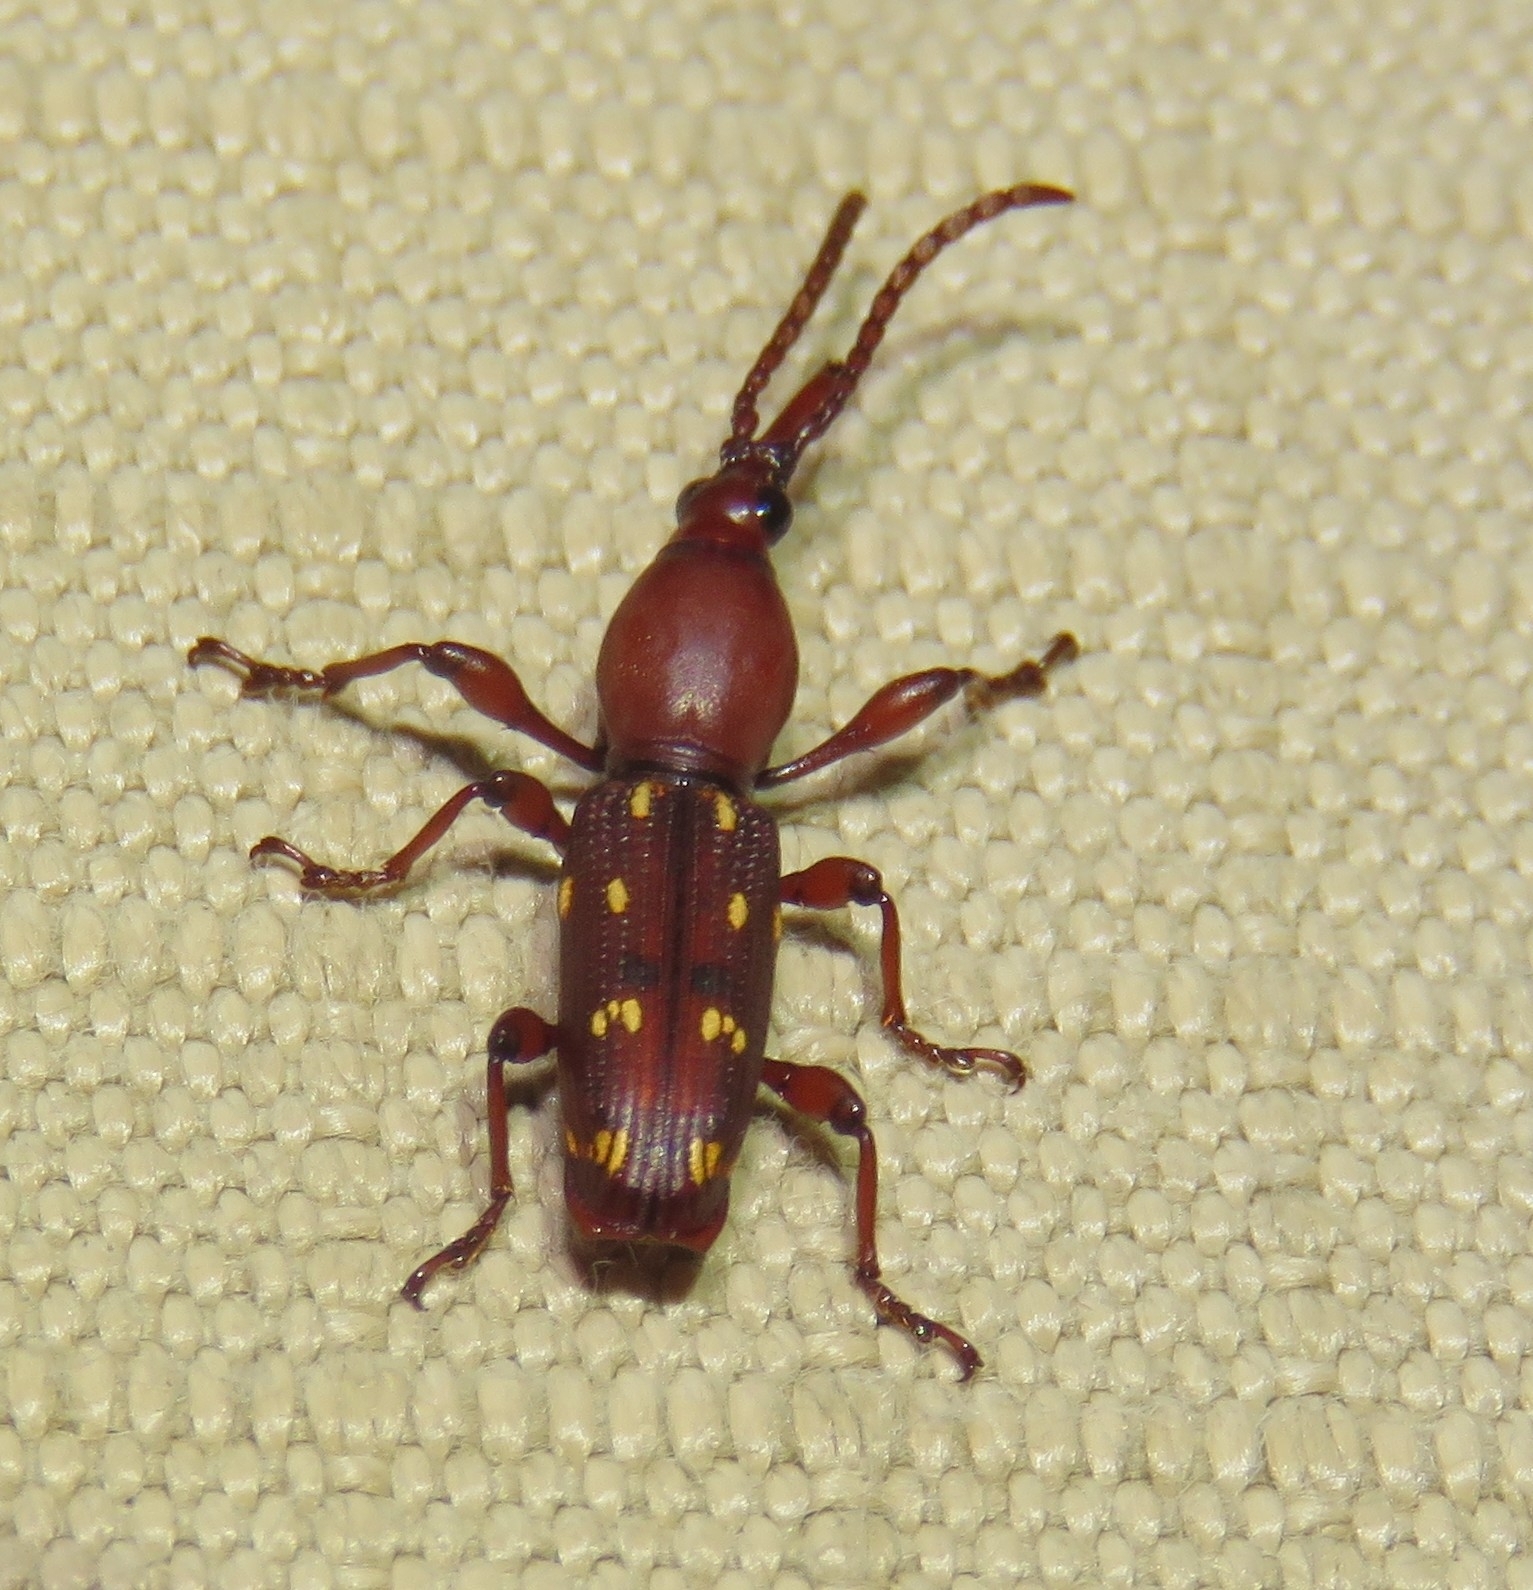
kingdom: Animalia
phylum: Arthropoda
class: Insecta
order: Coleoptera
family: Brentidae
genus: Orfilaia
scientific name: Orfilaia truncata
